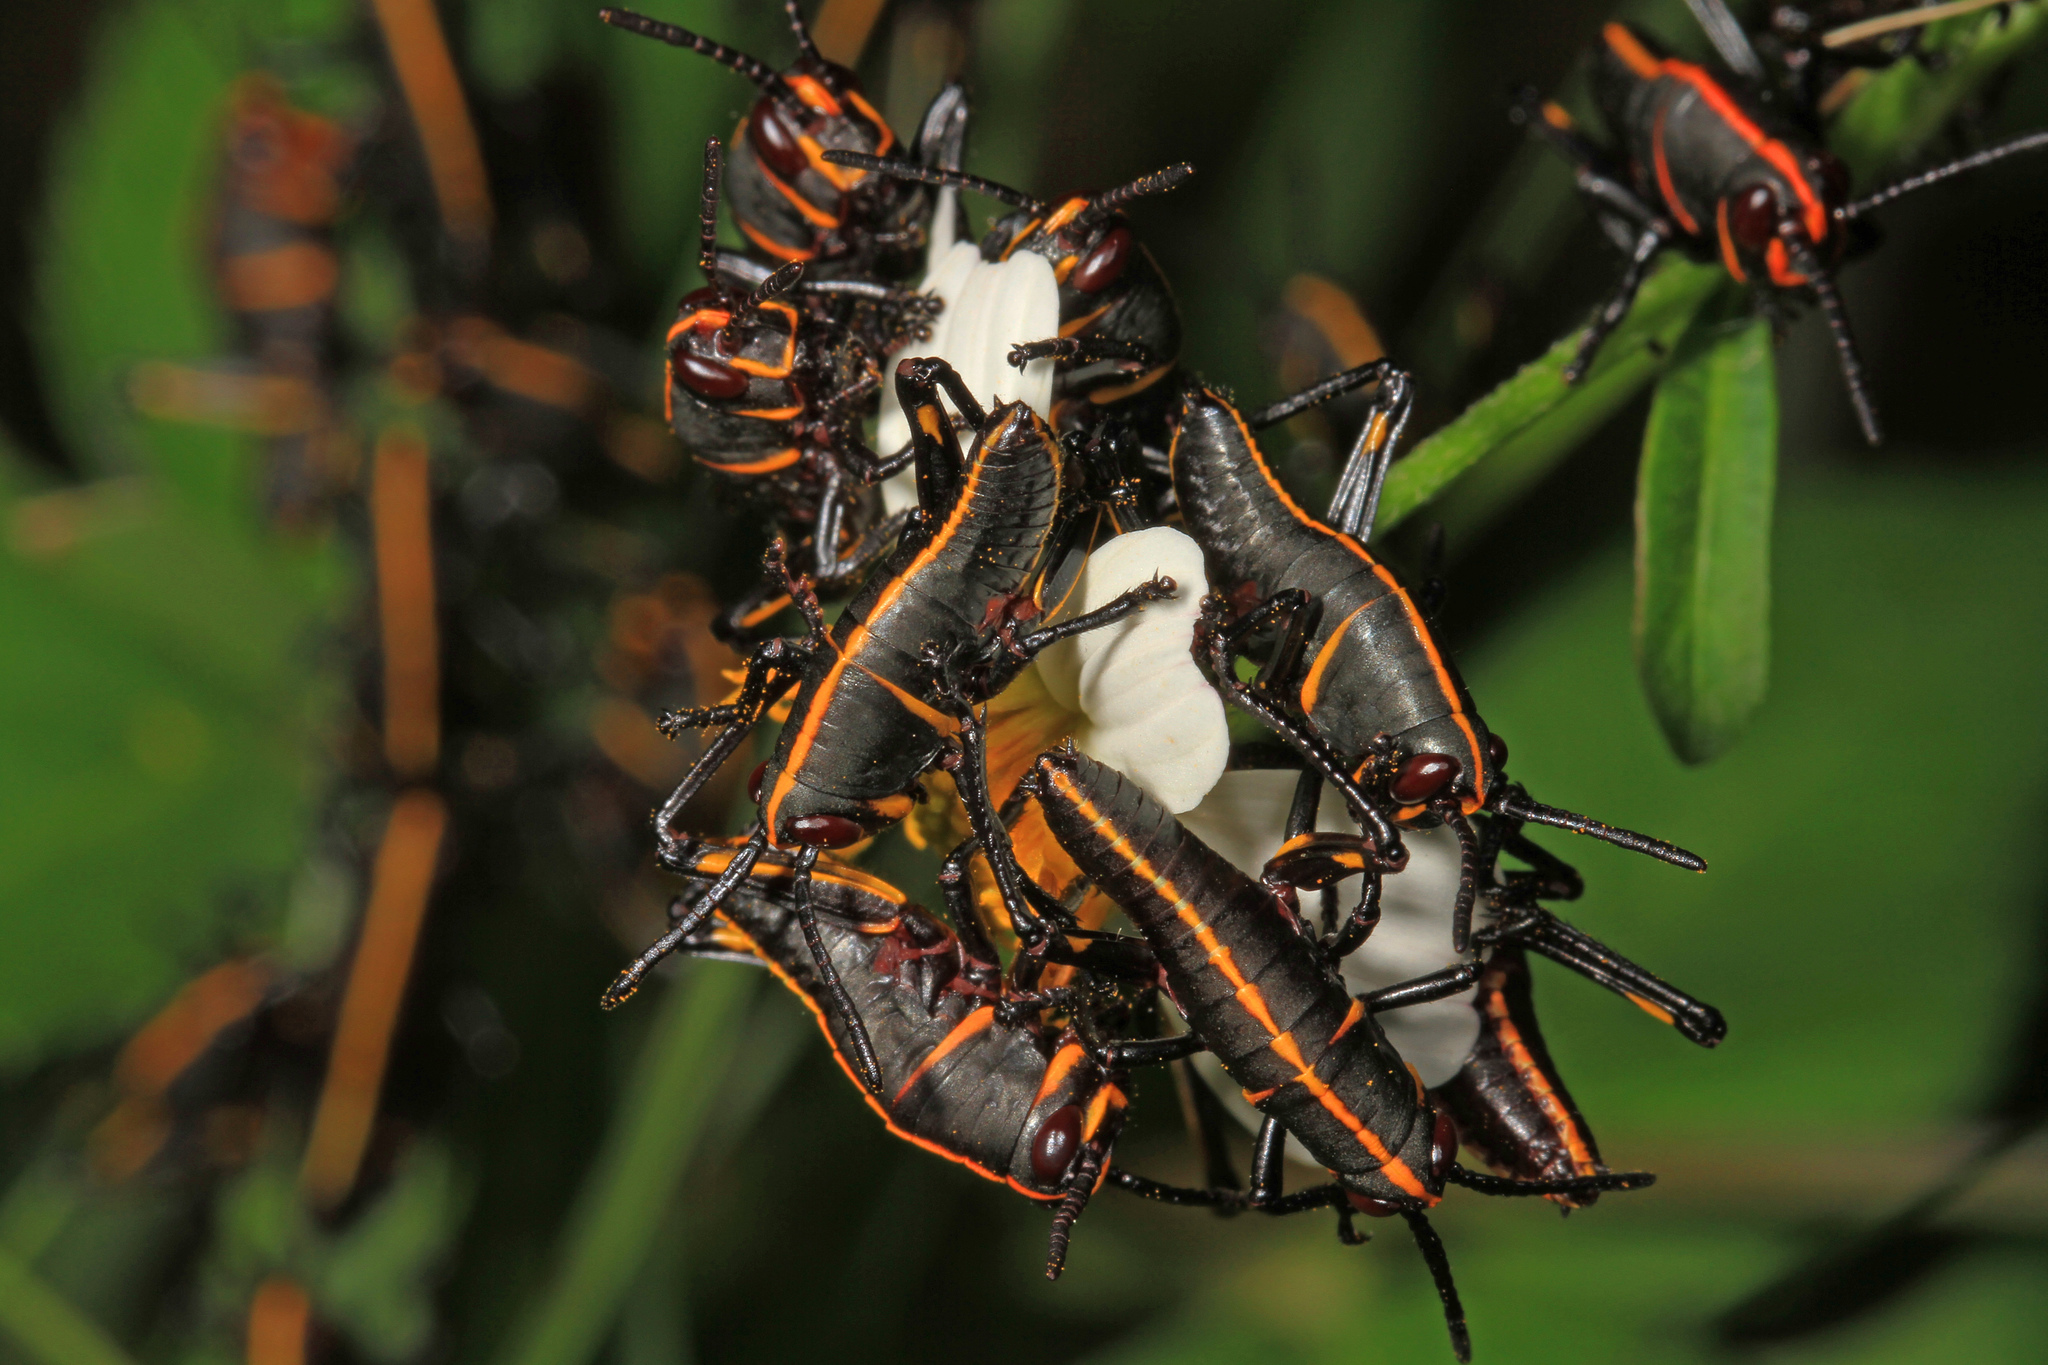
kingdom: Animalia
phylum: Arthropoda
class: Insecta
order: Orthoptera
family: Romaleidae
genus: Romalea
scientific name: Romalea microptera
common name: Eastern lubber grasshopper
